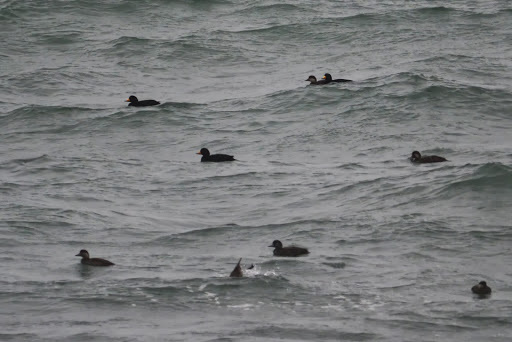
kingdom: Animalia
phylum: Chordata
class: Aves
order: Anseriformes
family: Anatidae
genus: Melanitta
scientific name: Melanitta americana
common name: Black scoter
